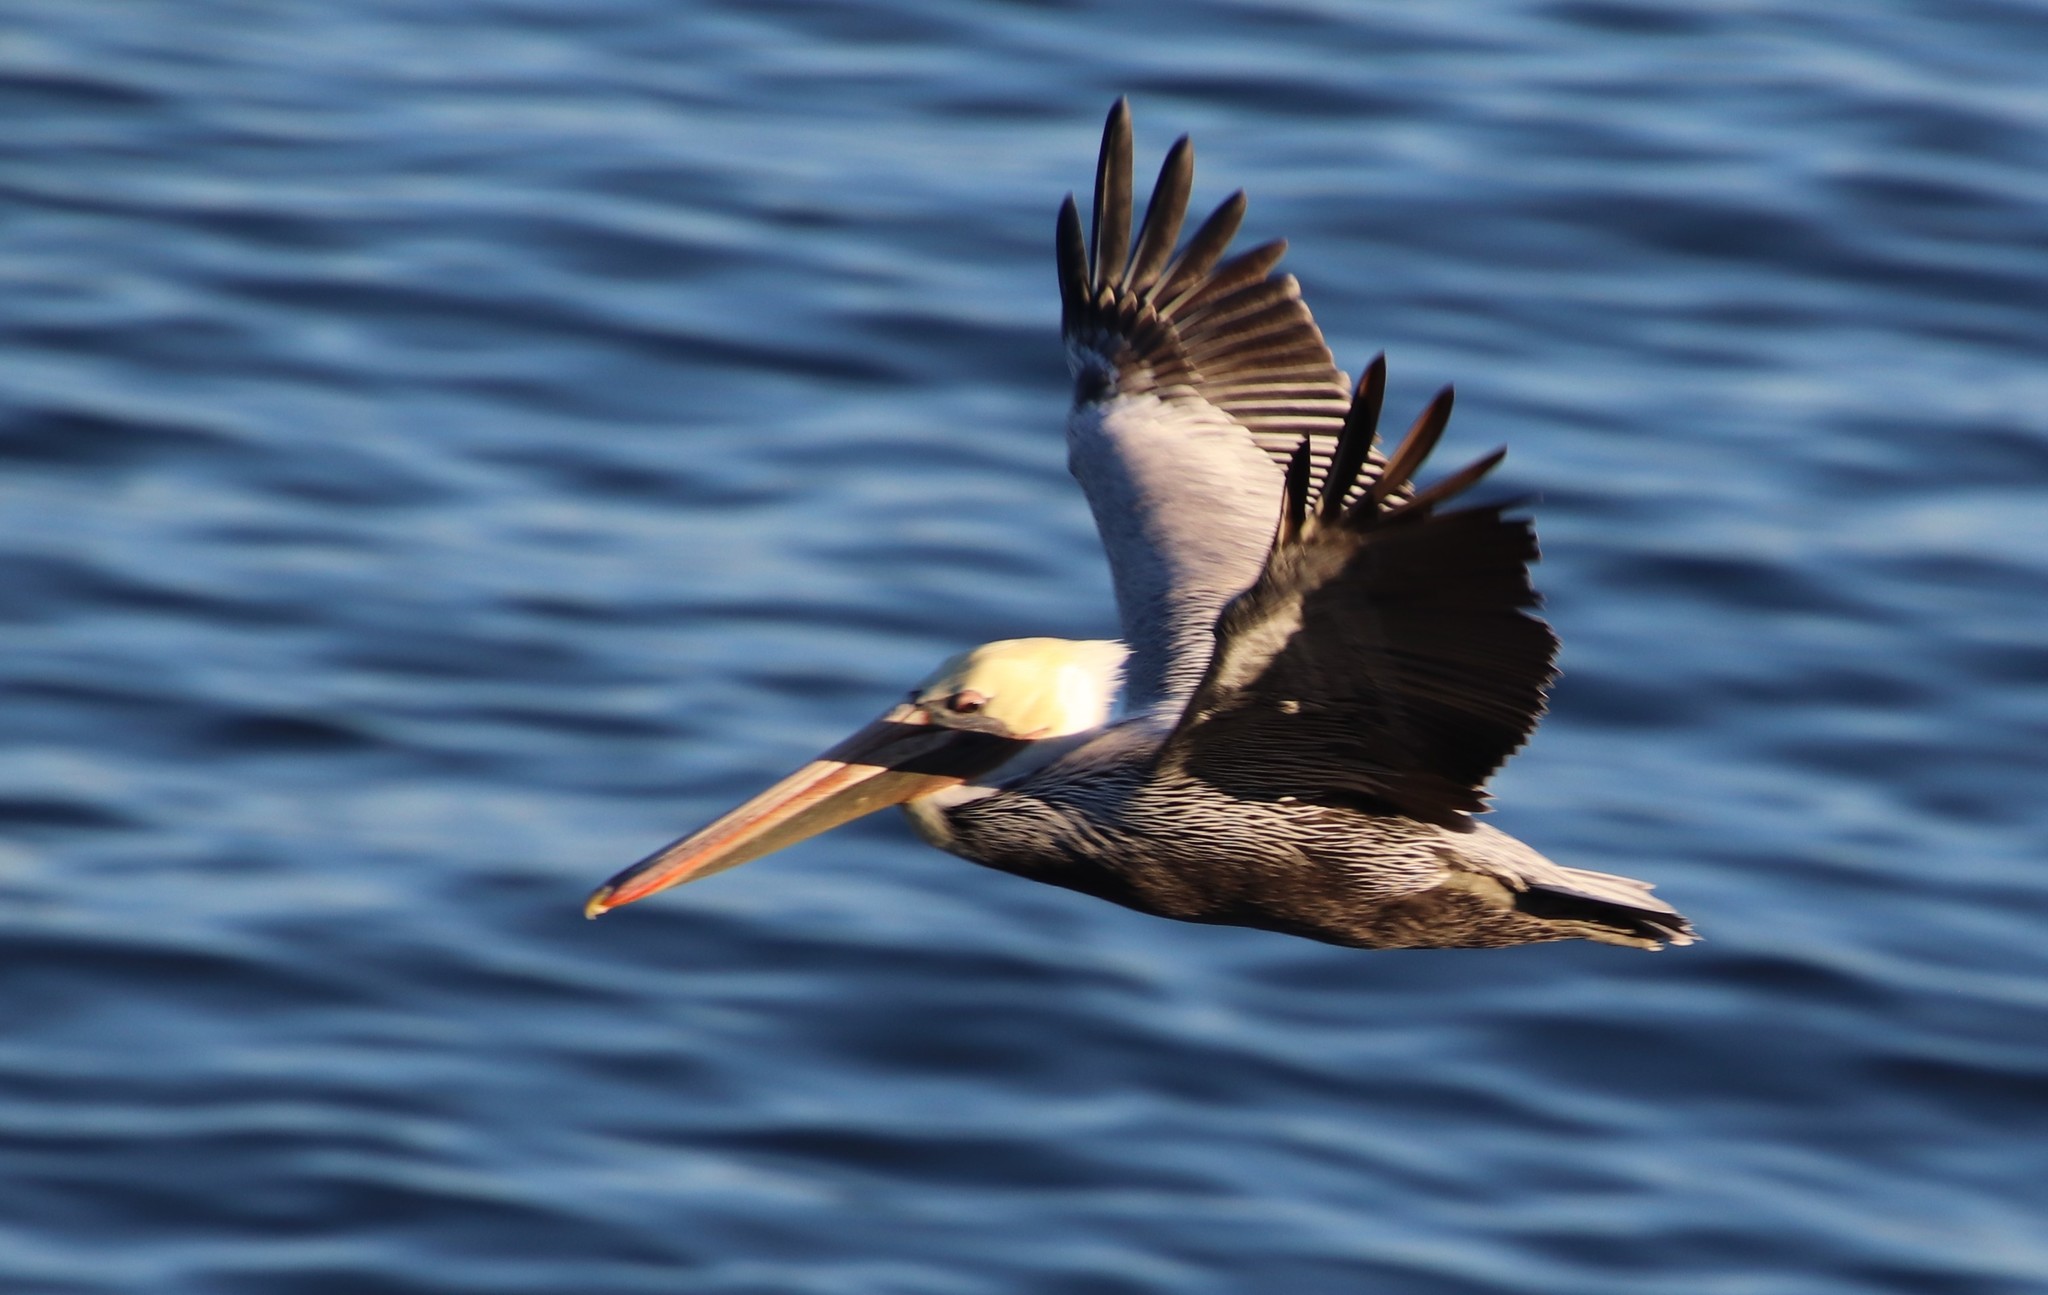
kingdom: Animalia
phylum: Chordata
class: Aves
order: Pelecaniformes
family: Pelecanidae
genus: Pelecanus
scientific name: Pelecanus occidentalis
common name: Brown pelican
